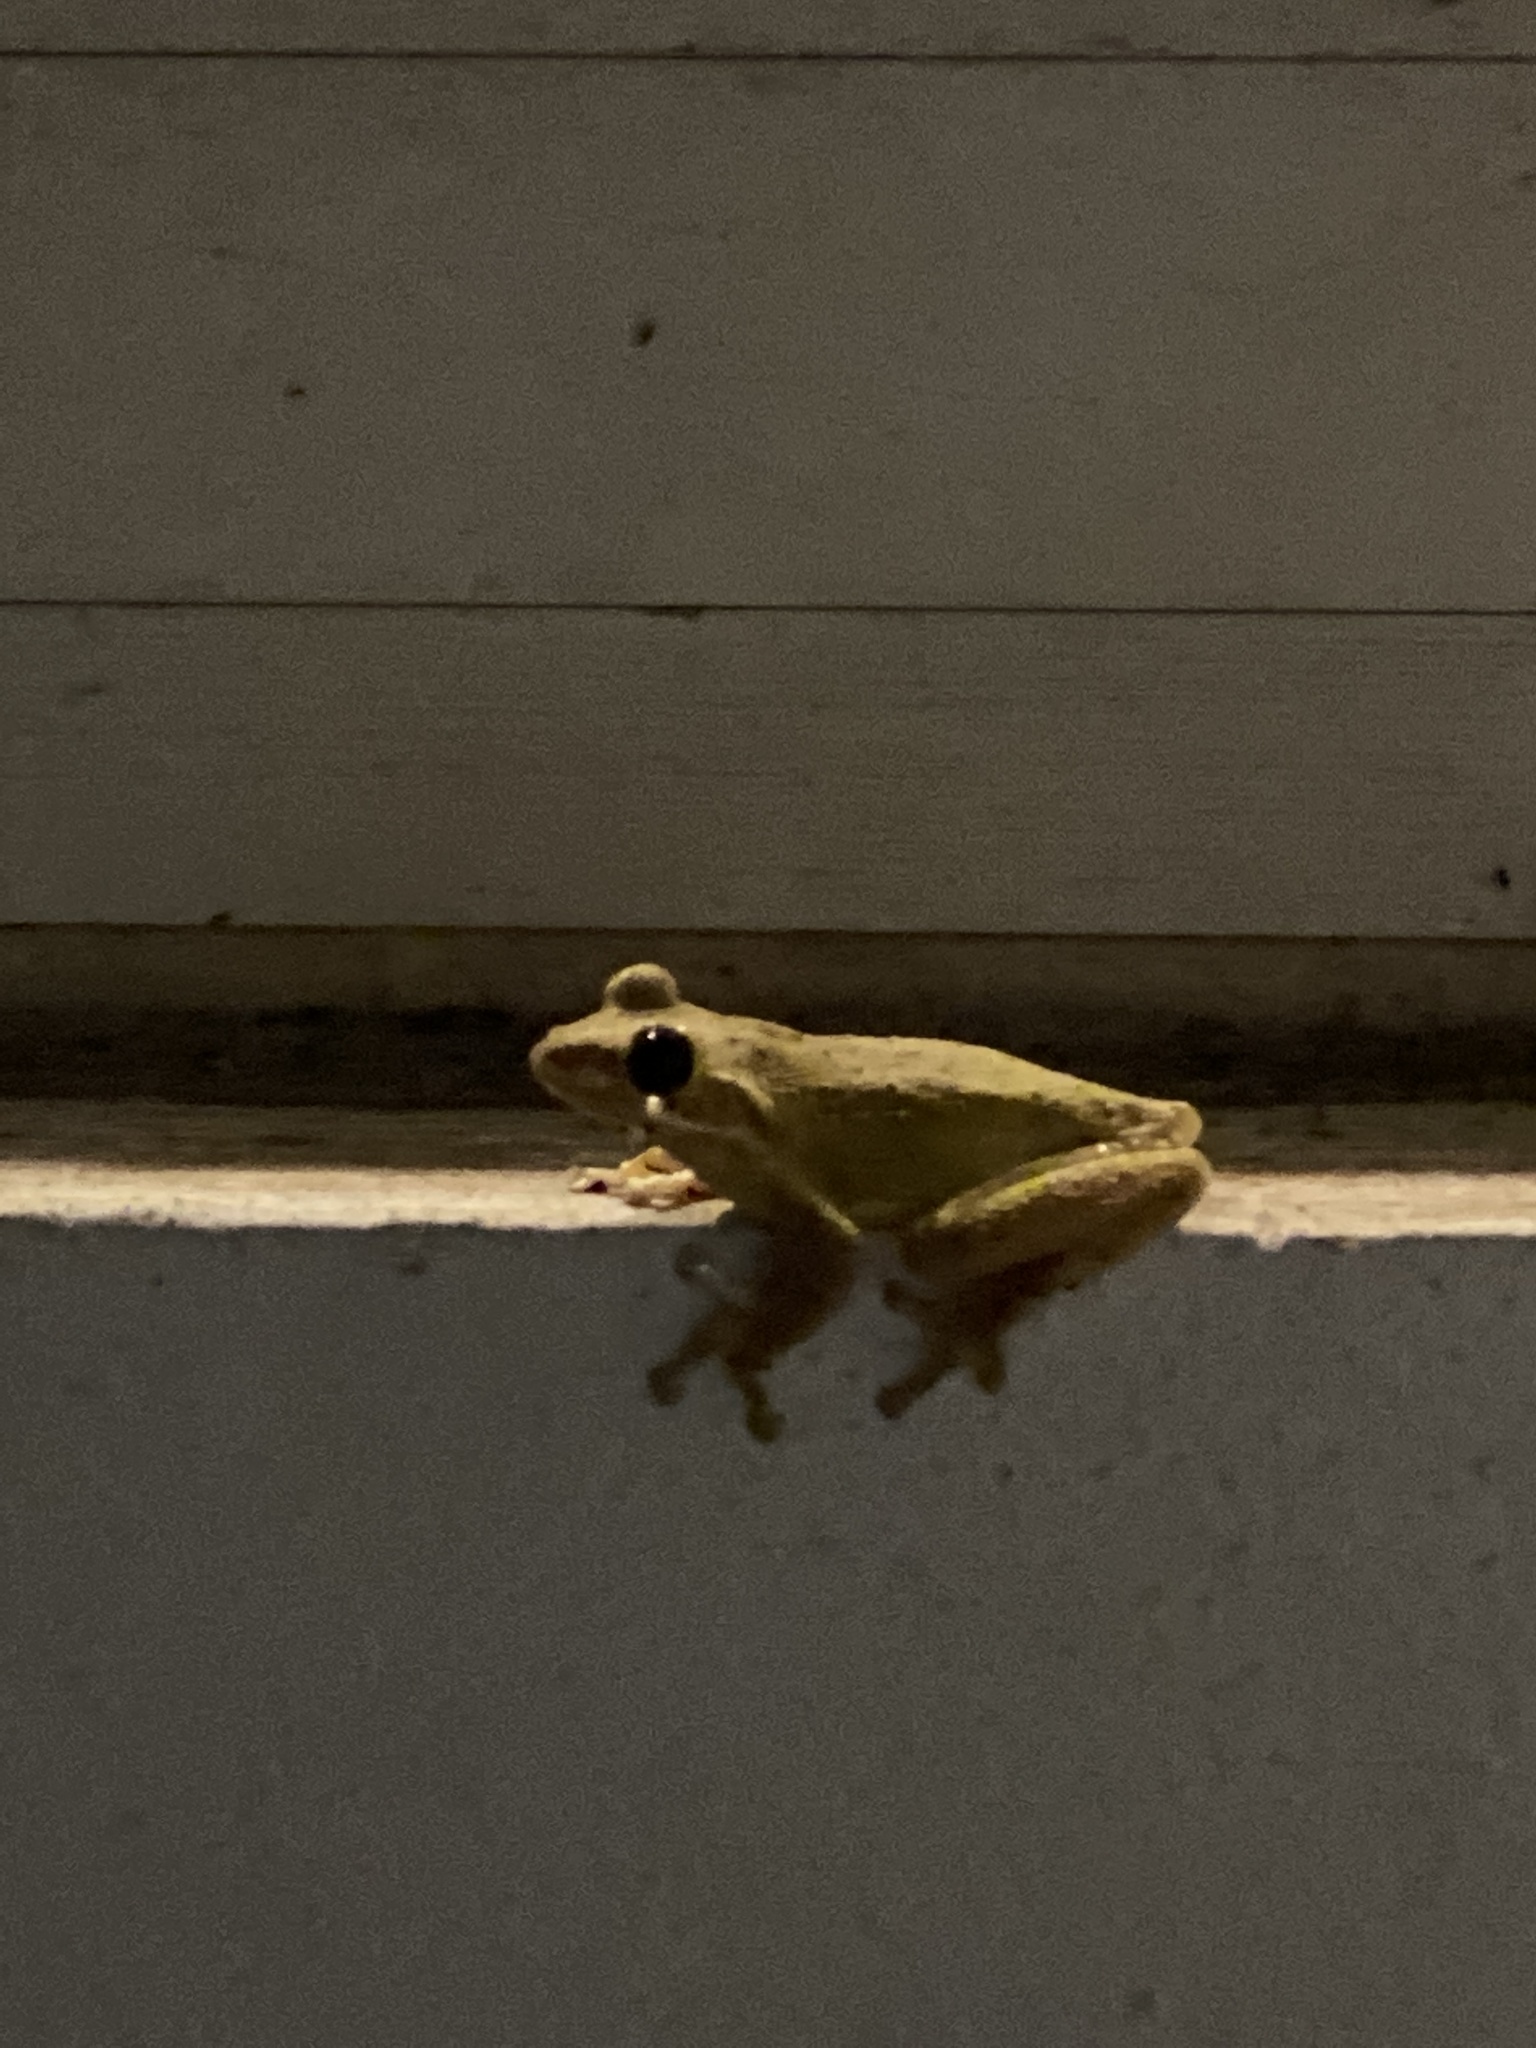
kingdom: Animalia
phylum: Chordata
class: Amphibia
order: Anura
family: Hylidae
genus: Osteopilus
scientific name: Osteopilus septentrionalis
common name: Cuban treefrog
